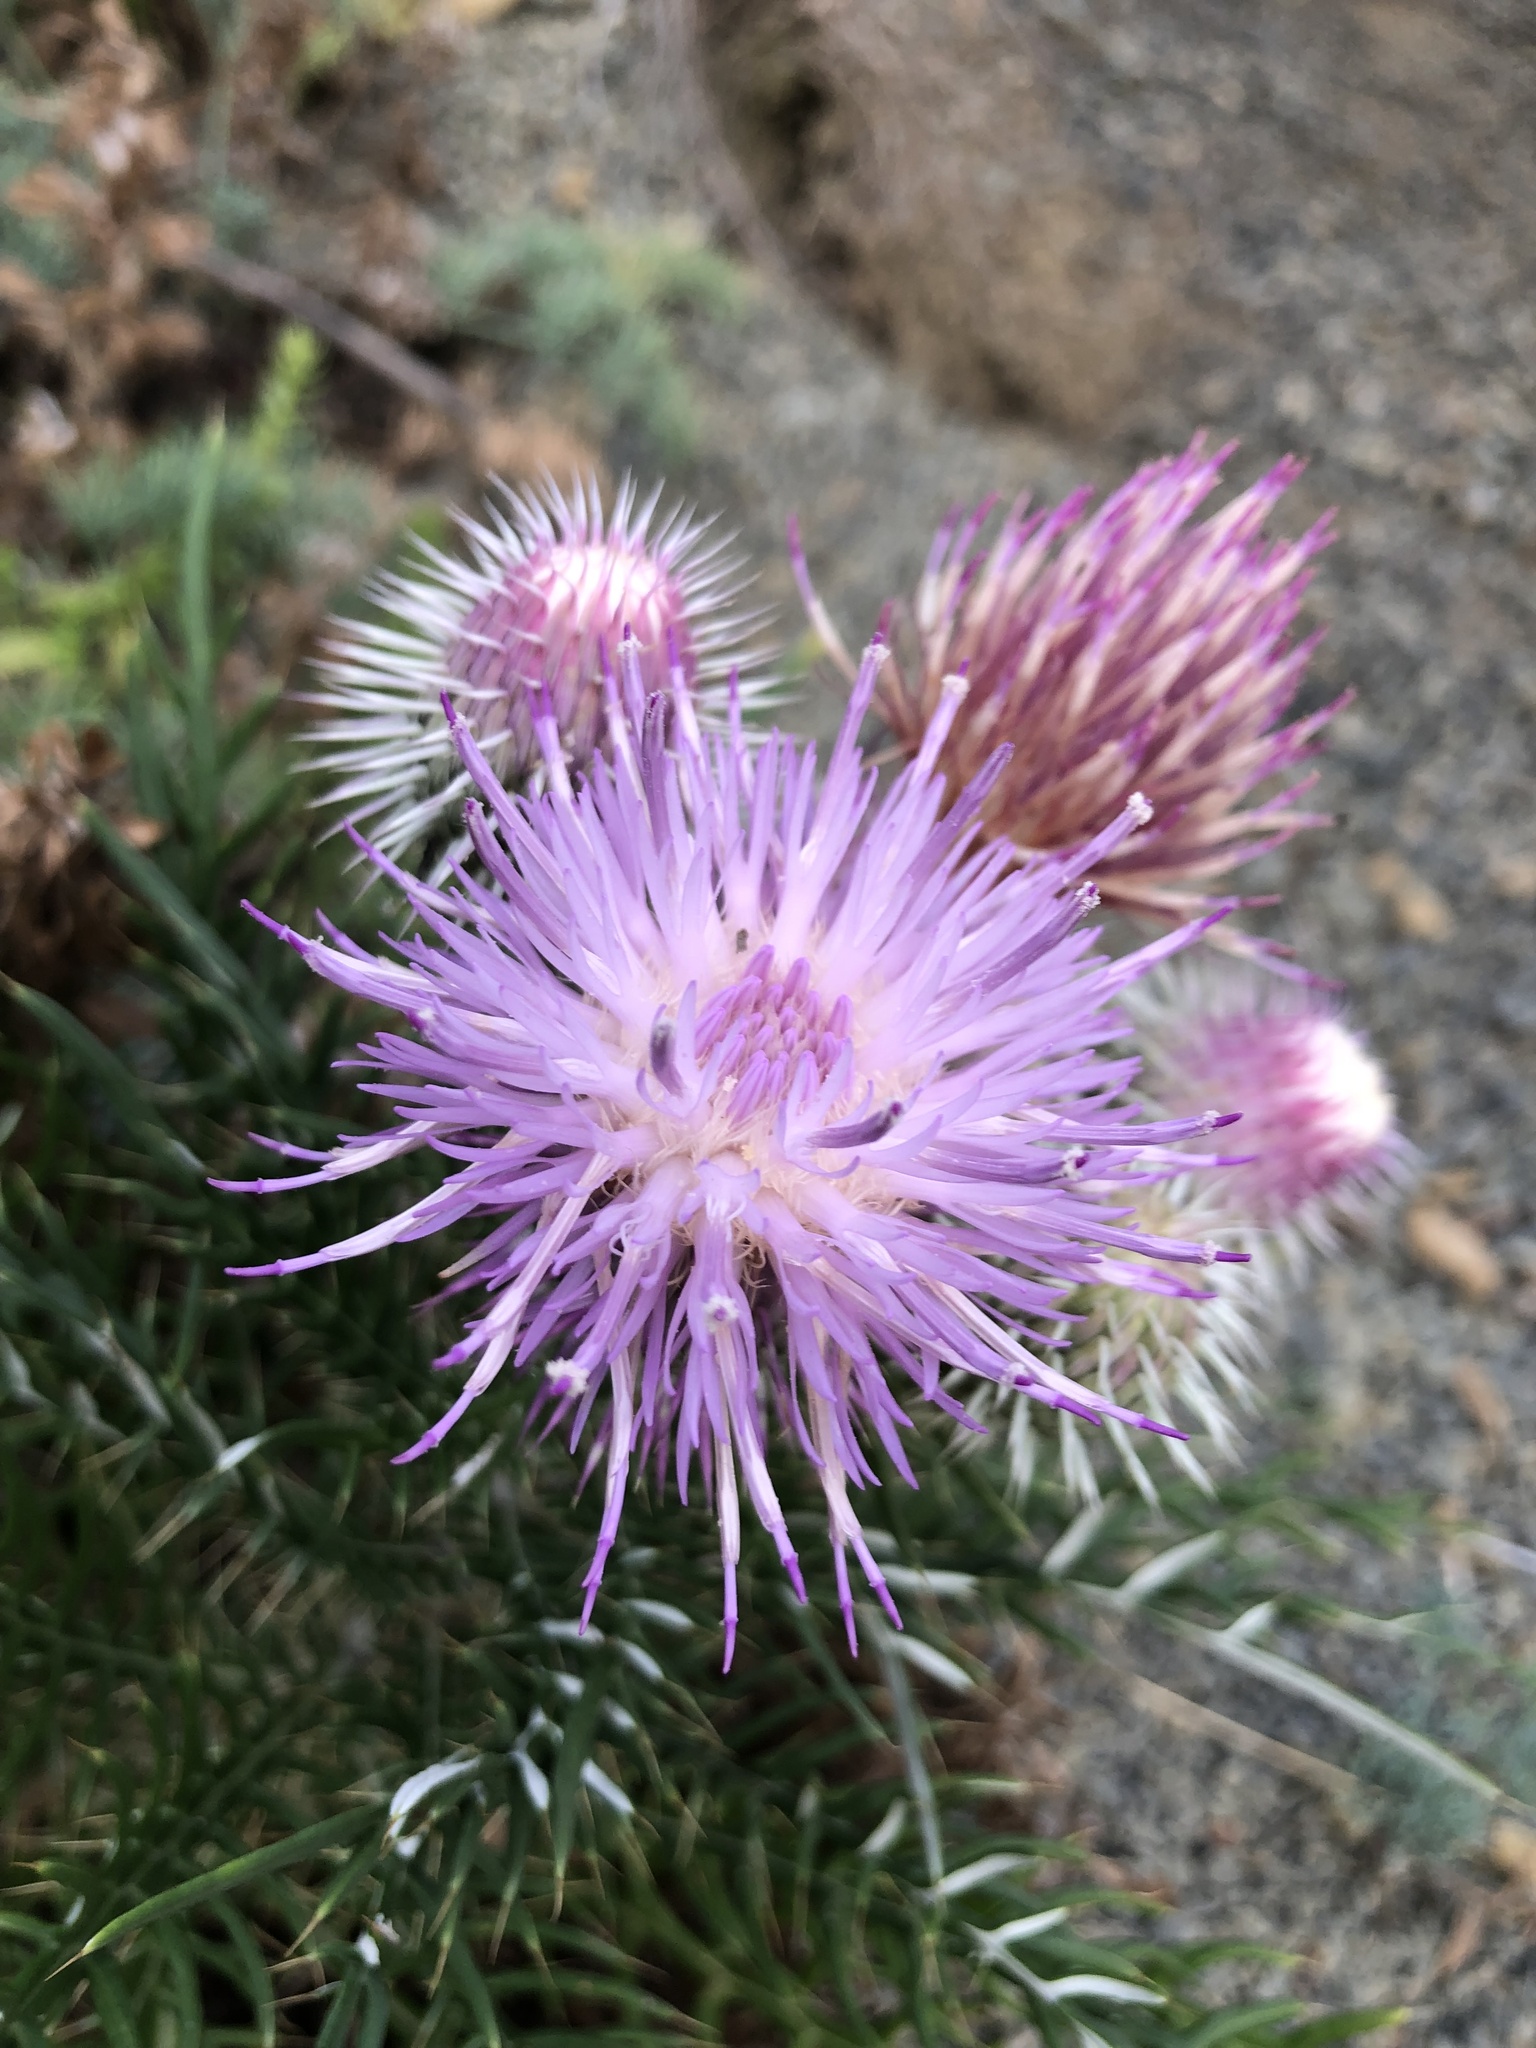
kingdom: Plantae
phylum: Tracheophyta
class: Magnoliopsida
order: Asterales
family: Asteraceae
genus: Ptilostemon
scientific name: Ptilostemon echinocephalus
